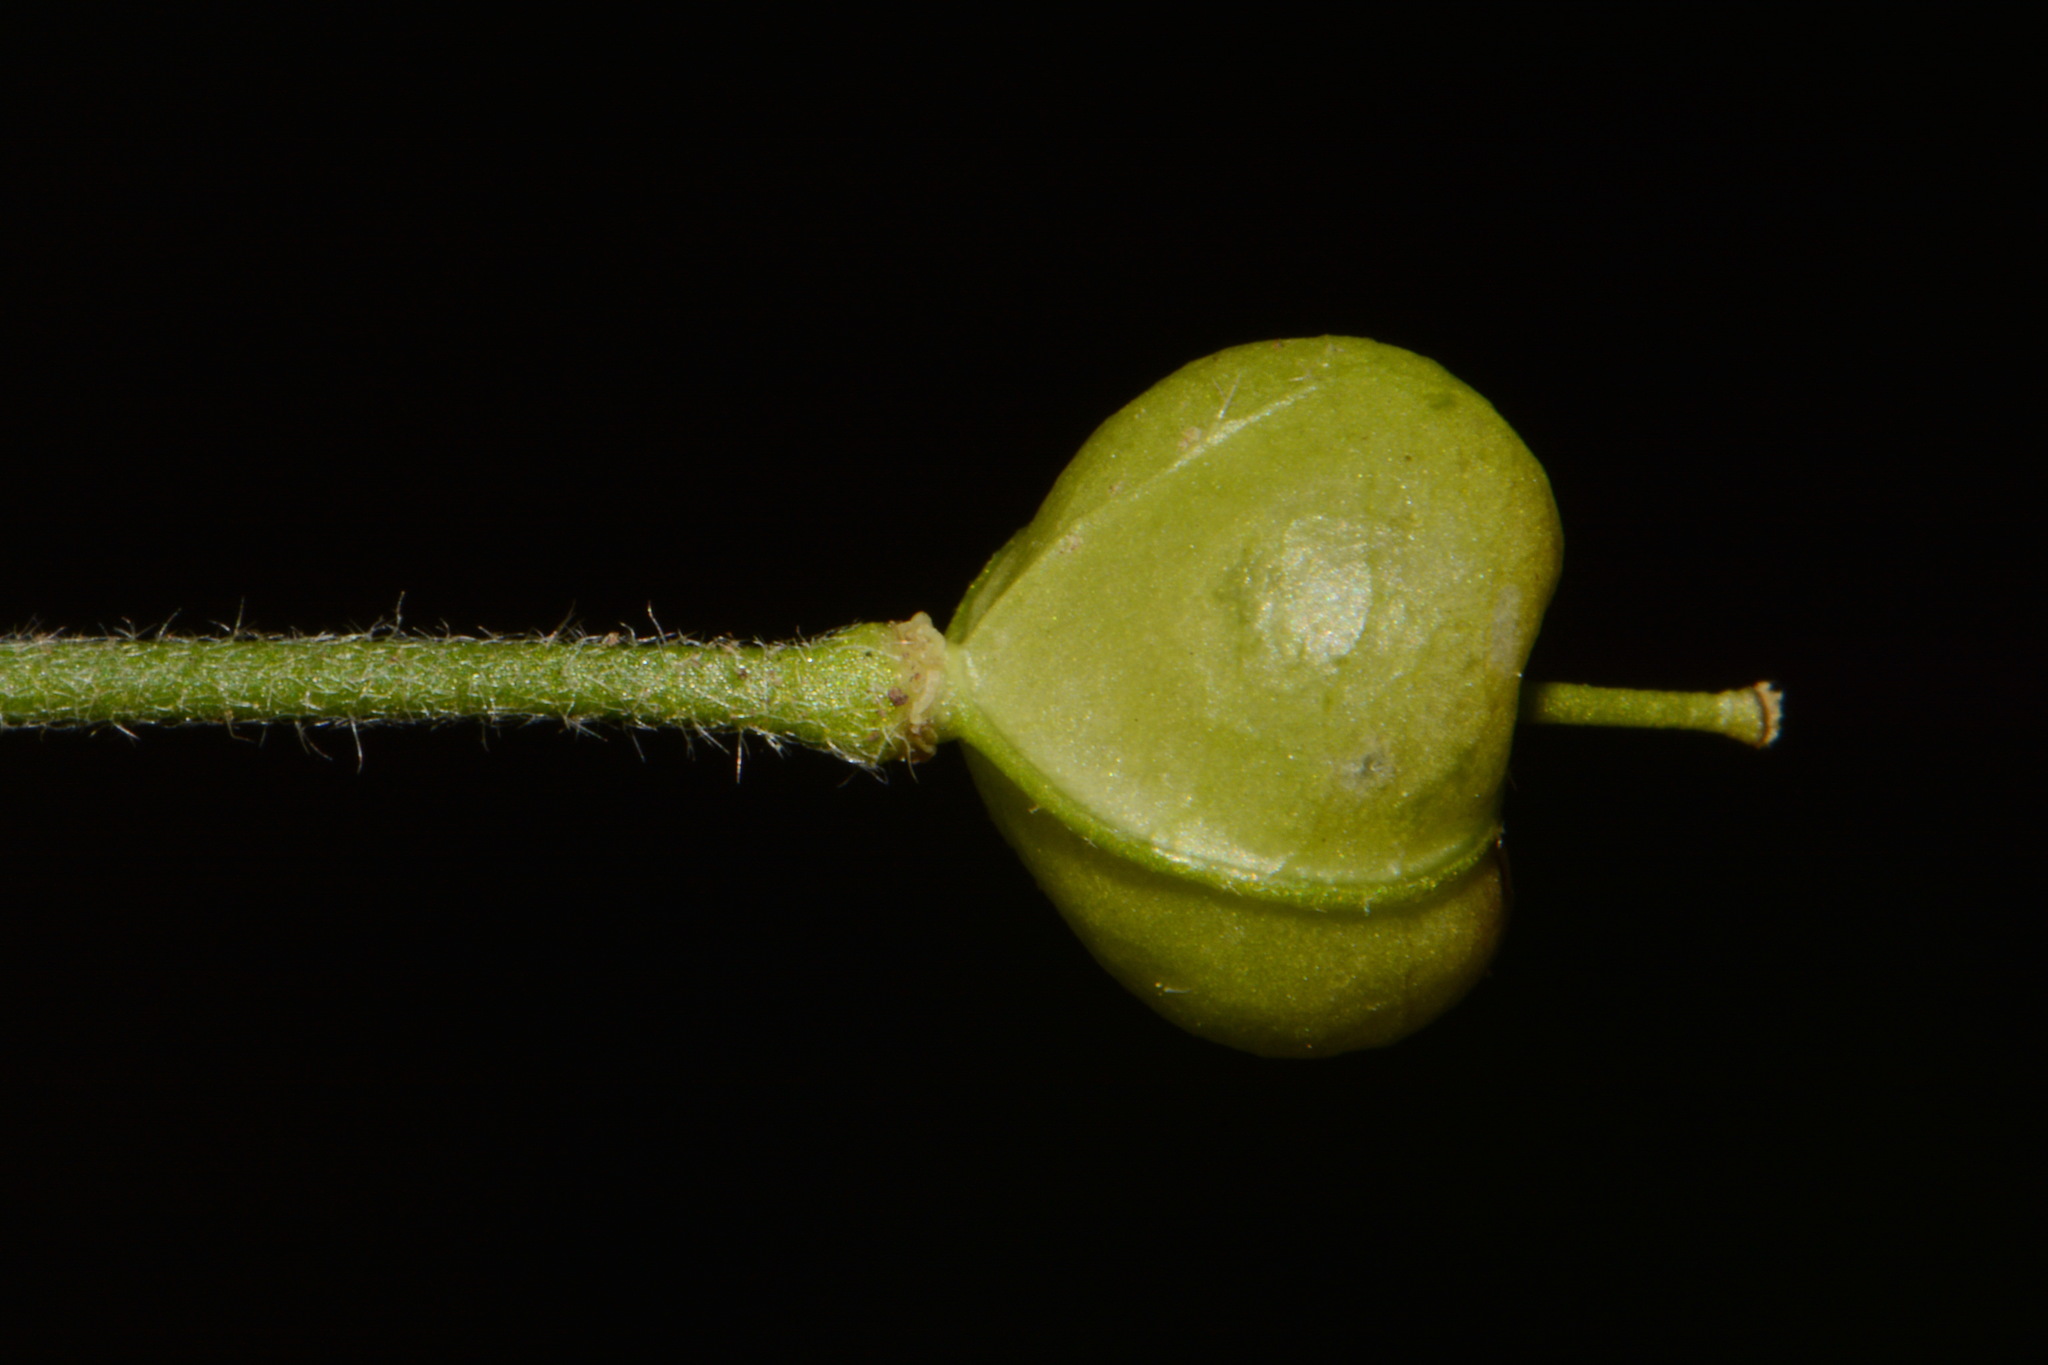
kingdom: Plantae
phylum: Tracheophyta
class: Magnoliopsida
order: Brassicales
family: Brassicaceae
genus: Paysonia
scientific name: Paysonia perforata
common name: Spring creek bladderpod
